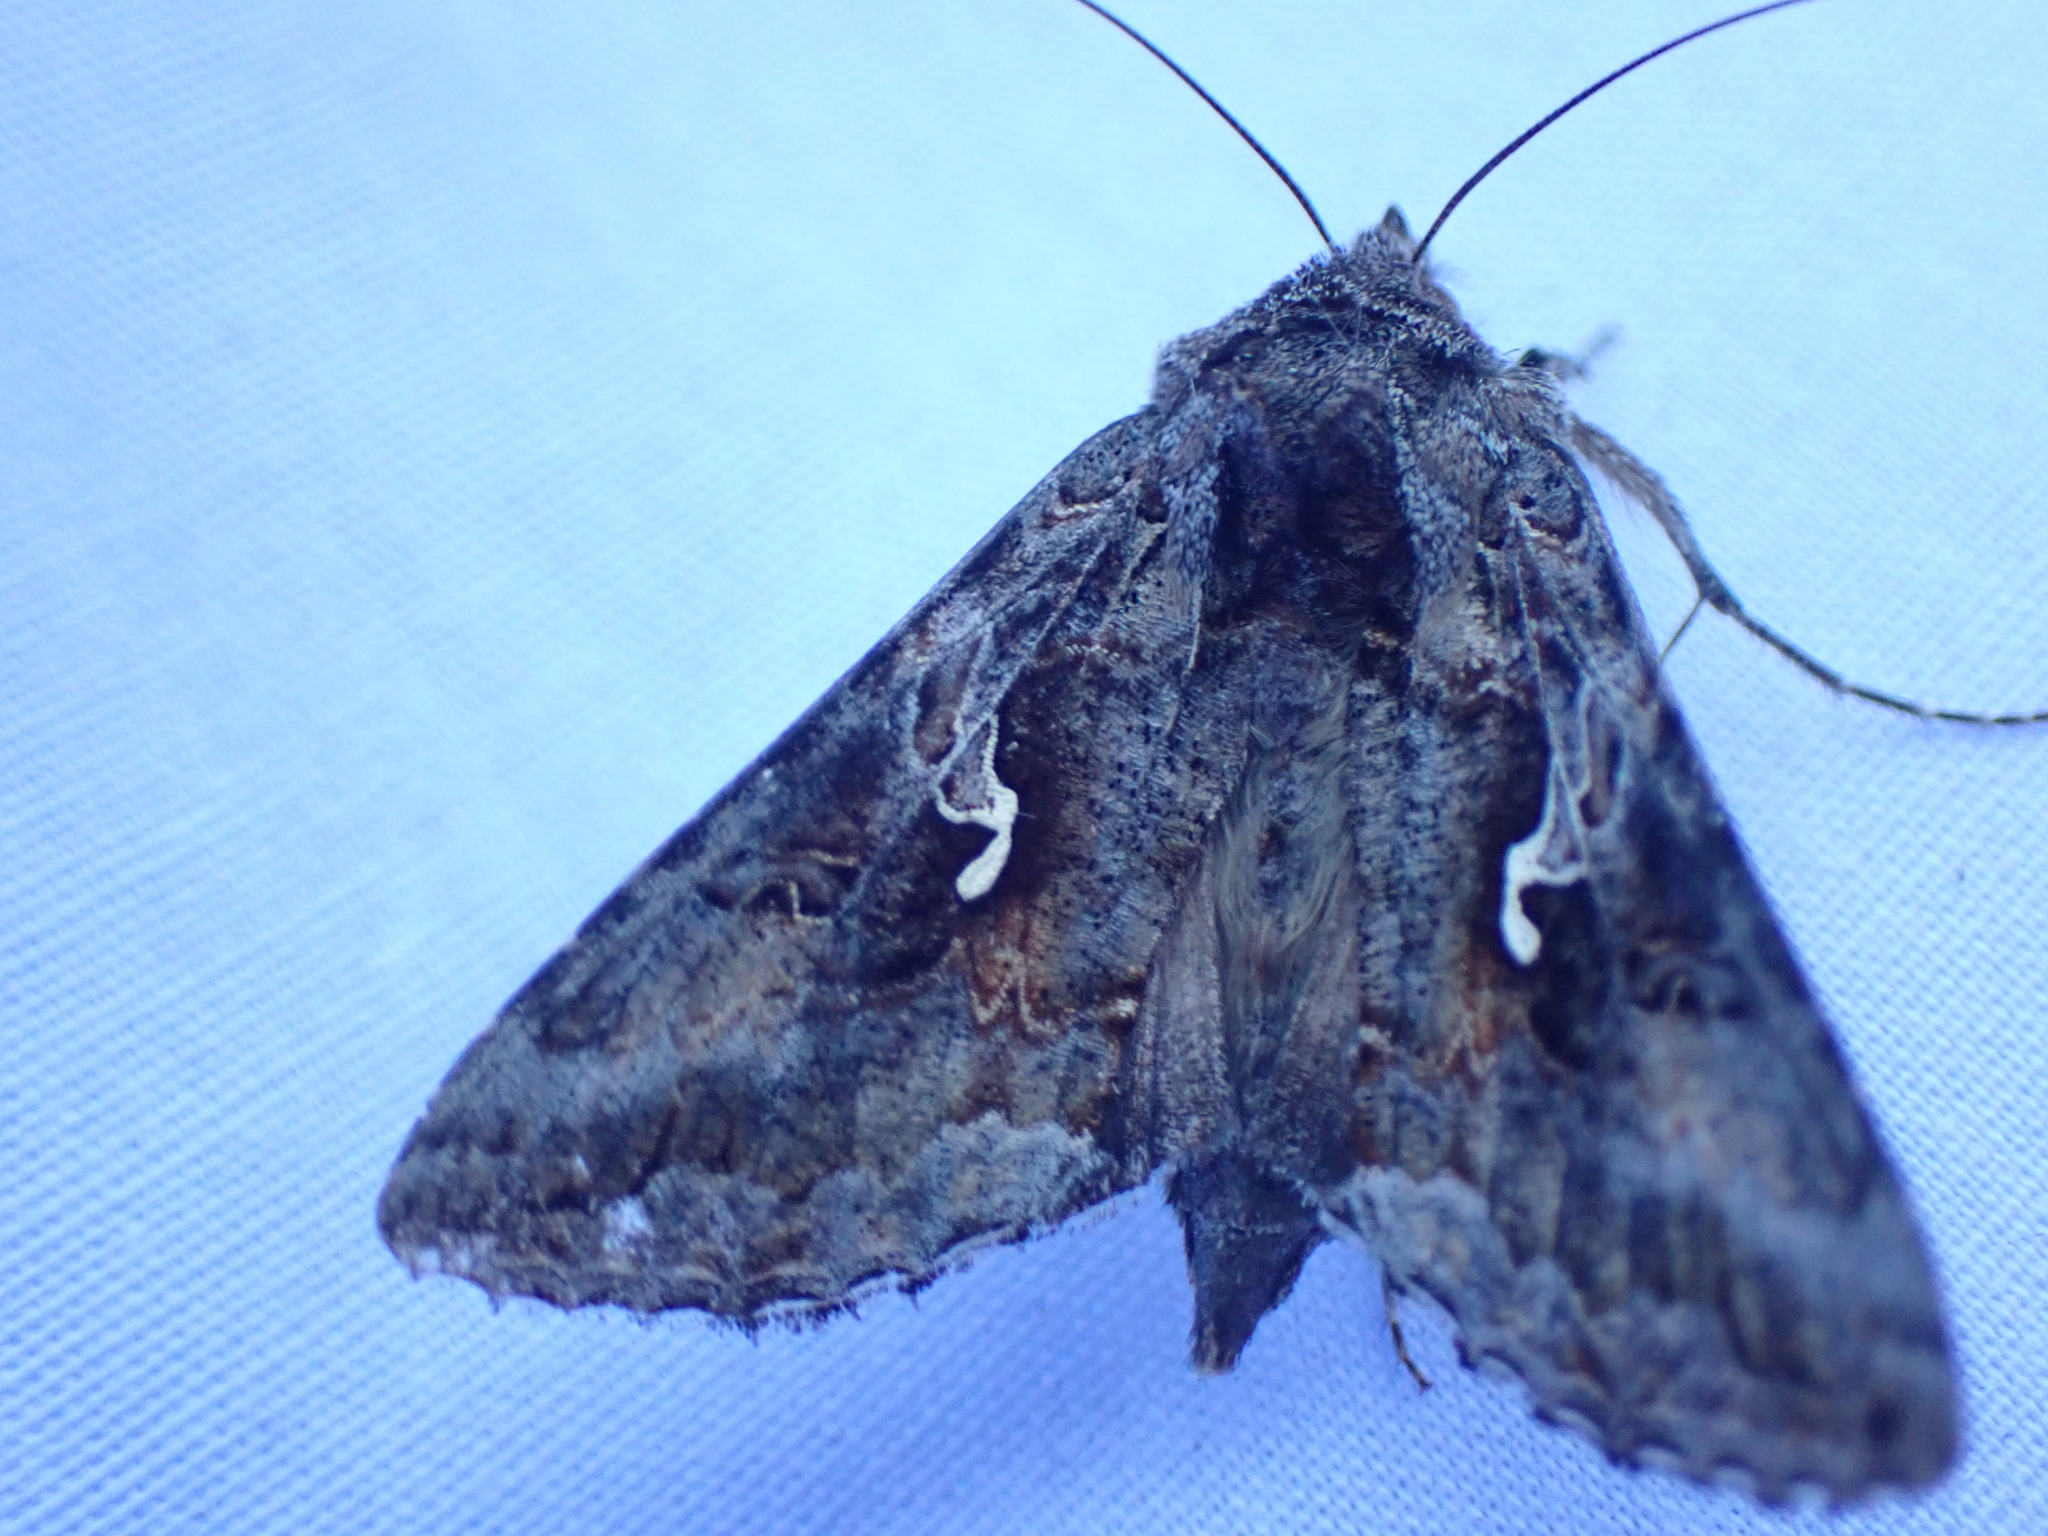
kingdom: Animalia
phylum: Arthropoda
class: Insecta
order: Lepidoptera
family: Noctuidae
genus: Autographa
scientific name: Autographa californica
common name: Alfalfa looper
